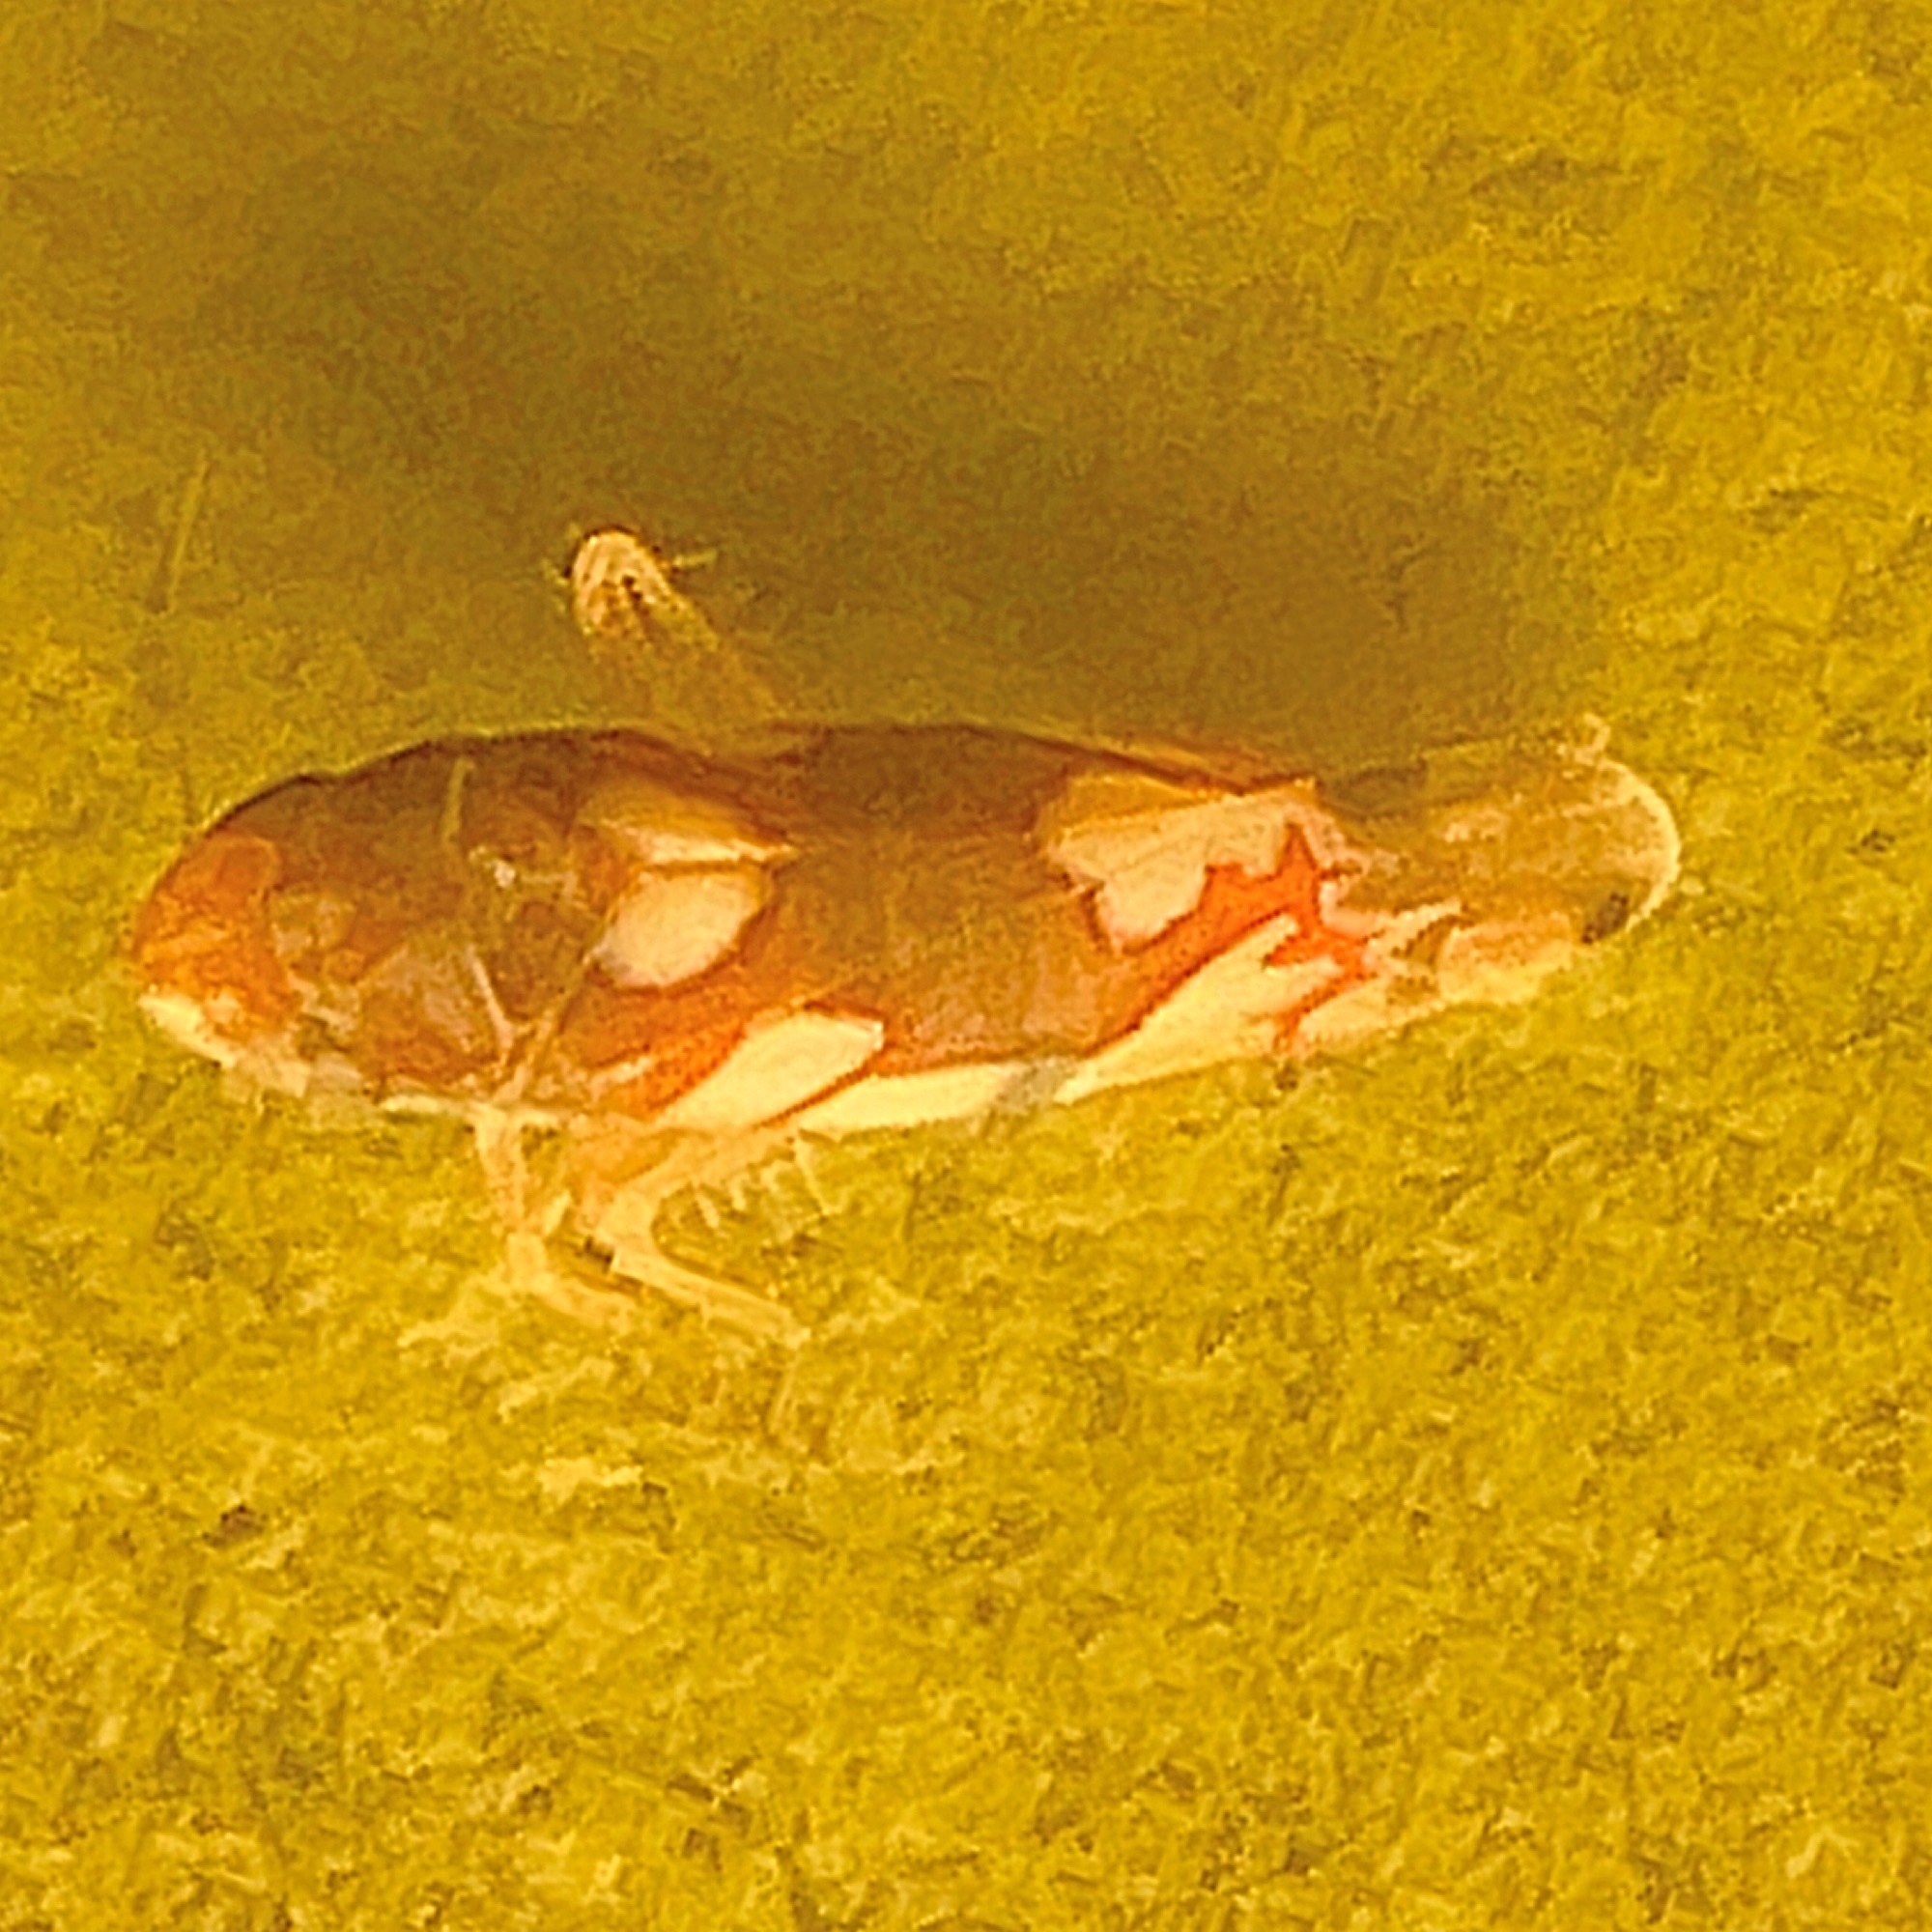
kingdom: Animalia
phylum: Arthropoda
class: Insecta
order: Hemiptera
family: Cicadellidae
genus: Erythroneura
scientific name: Erythroneura elegans
